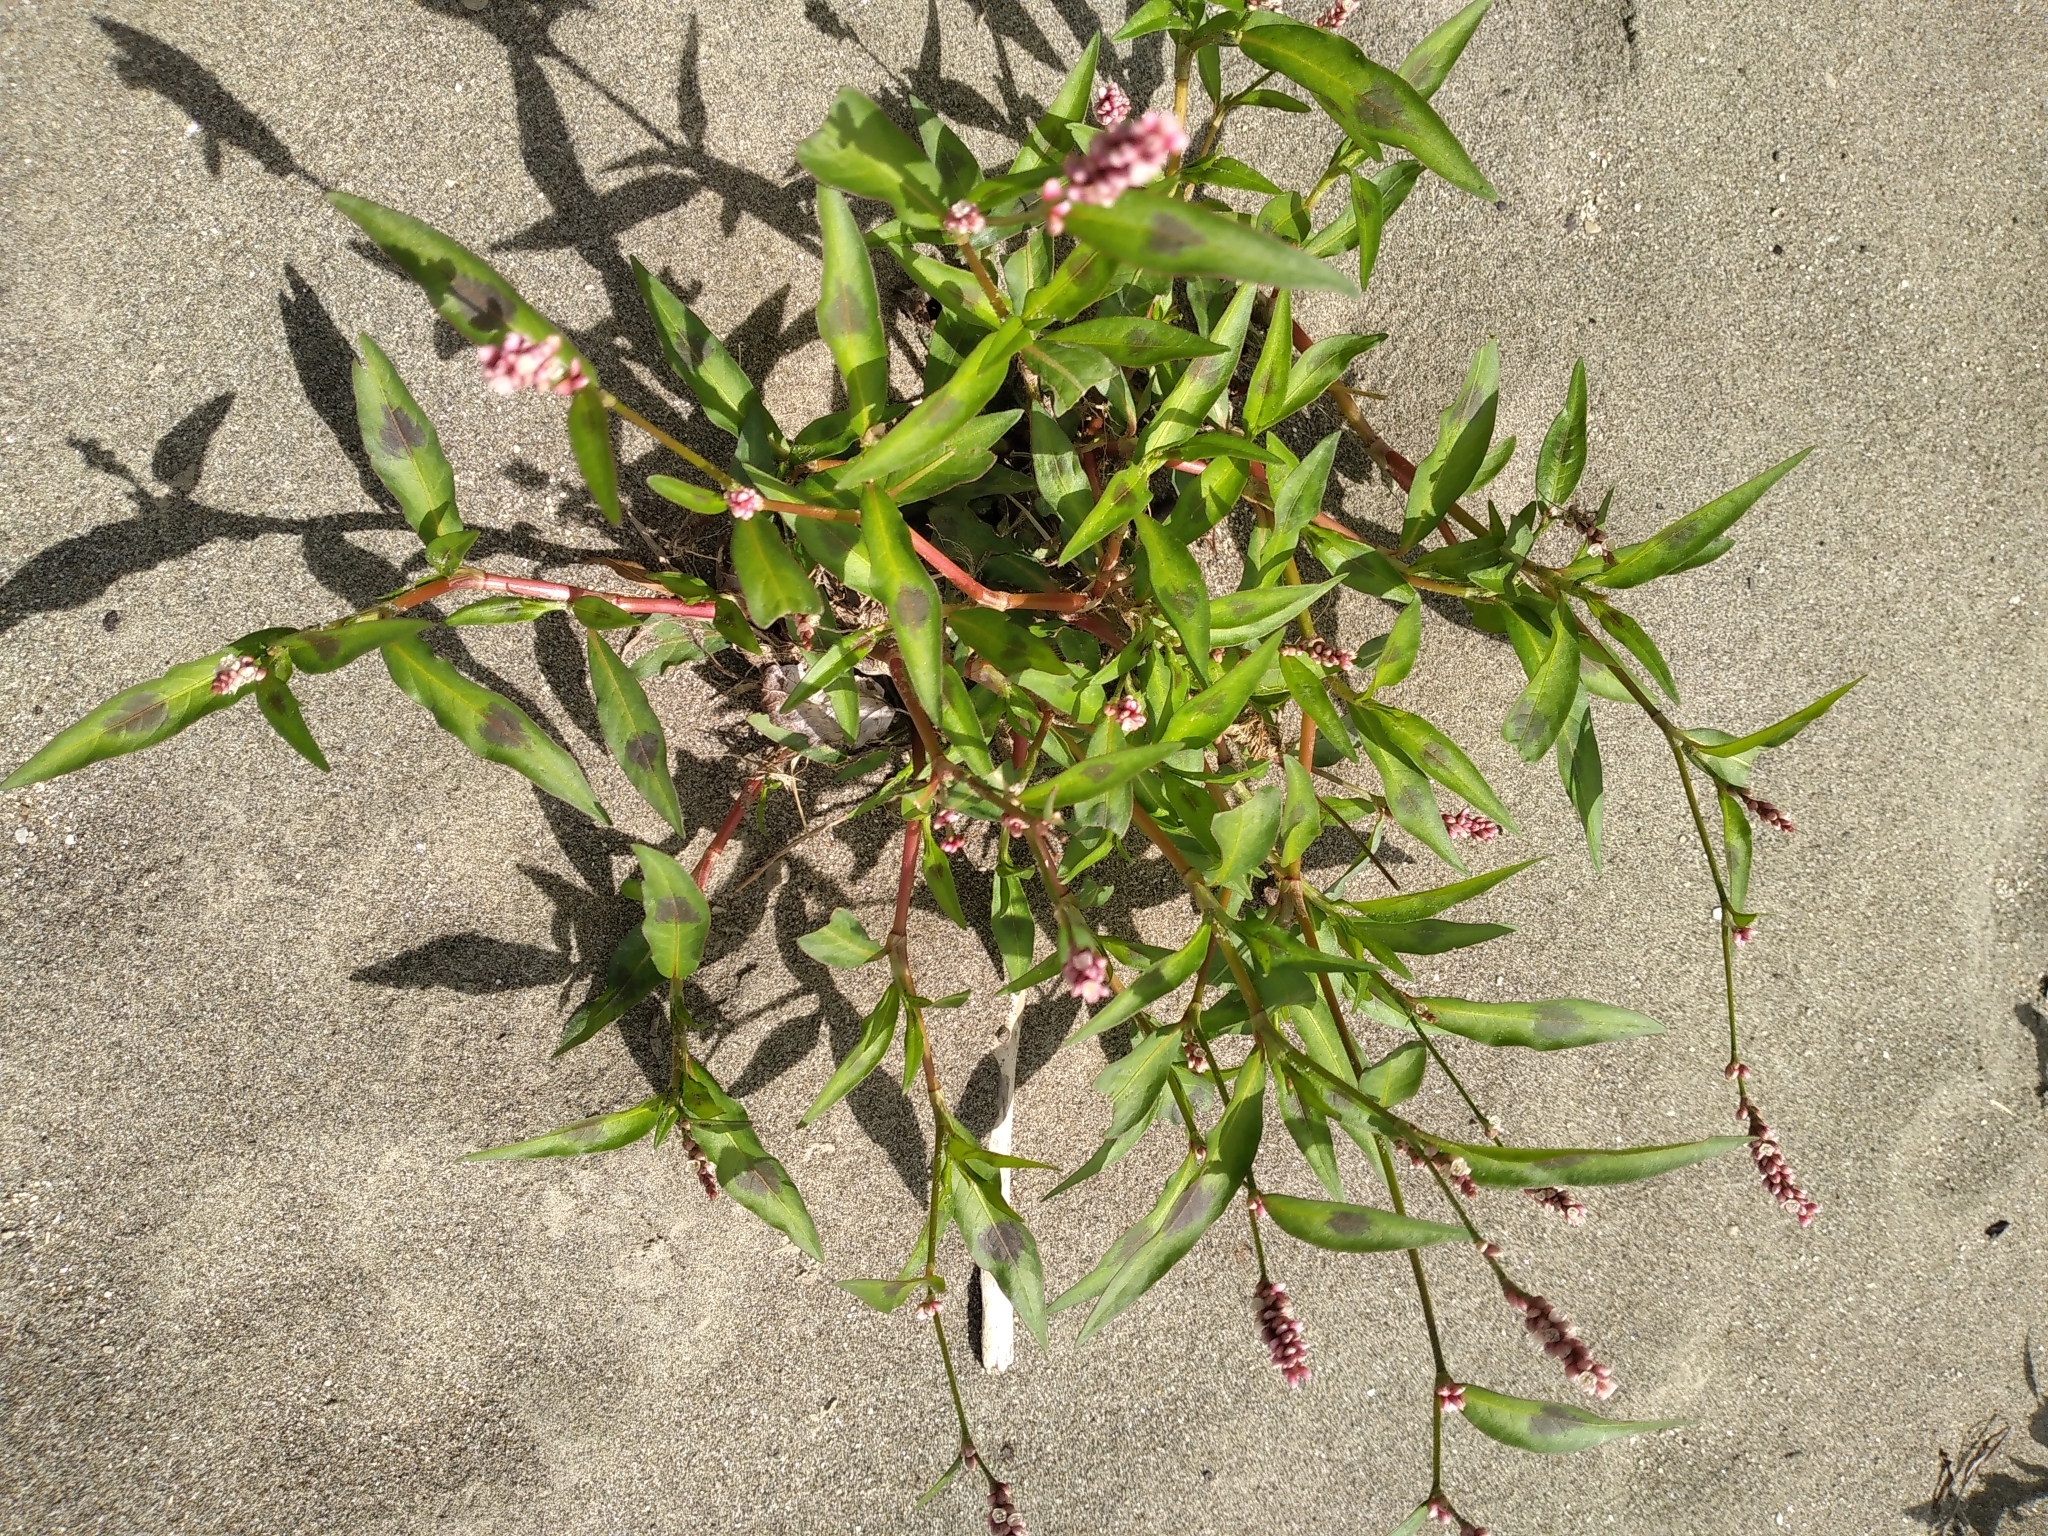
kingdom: Plantae
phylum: Tracheophyta
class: Magnoliopsida
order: Caryophyllales
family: Polygonaceae
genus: Persicaria
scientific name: Persicaria maculosa
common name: Redshank
